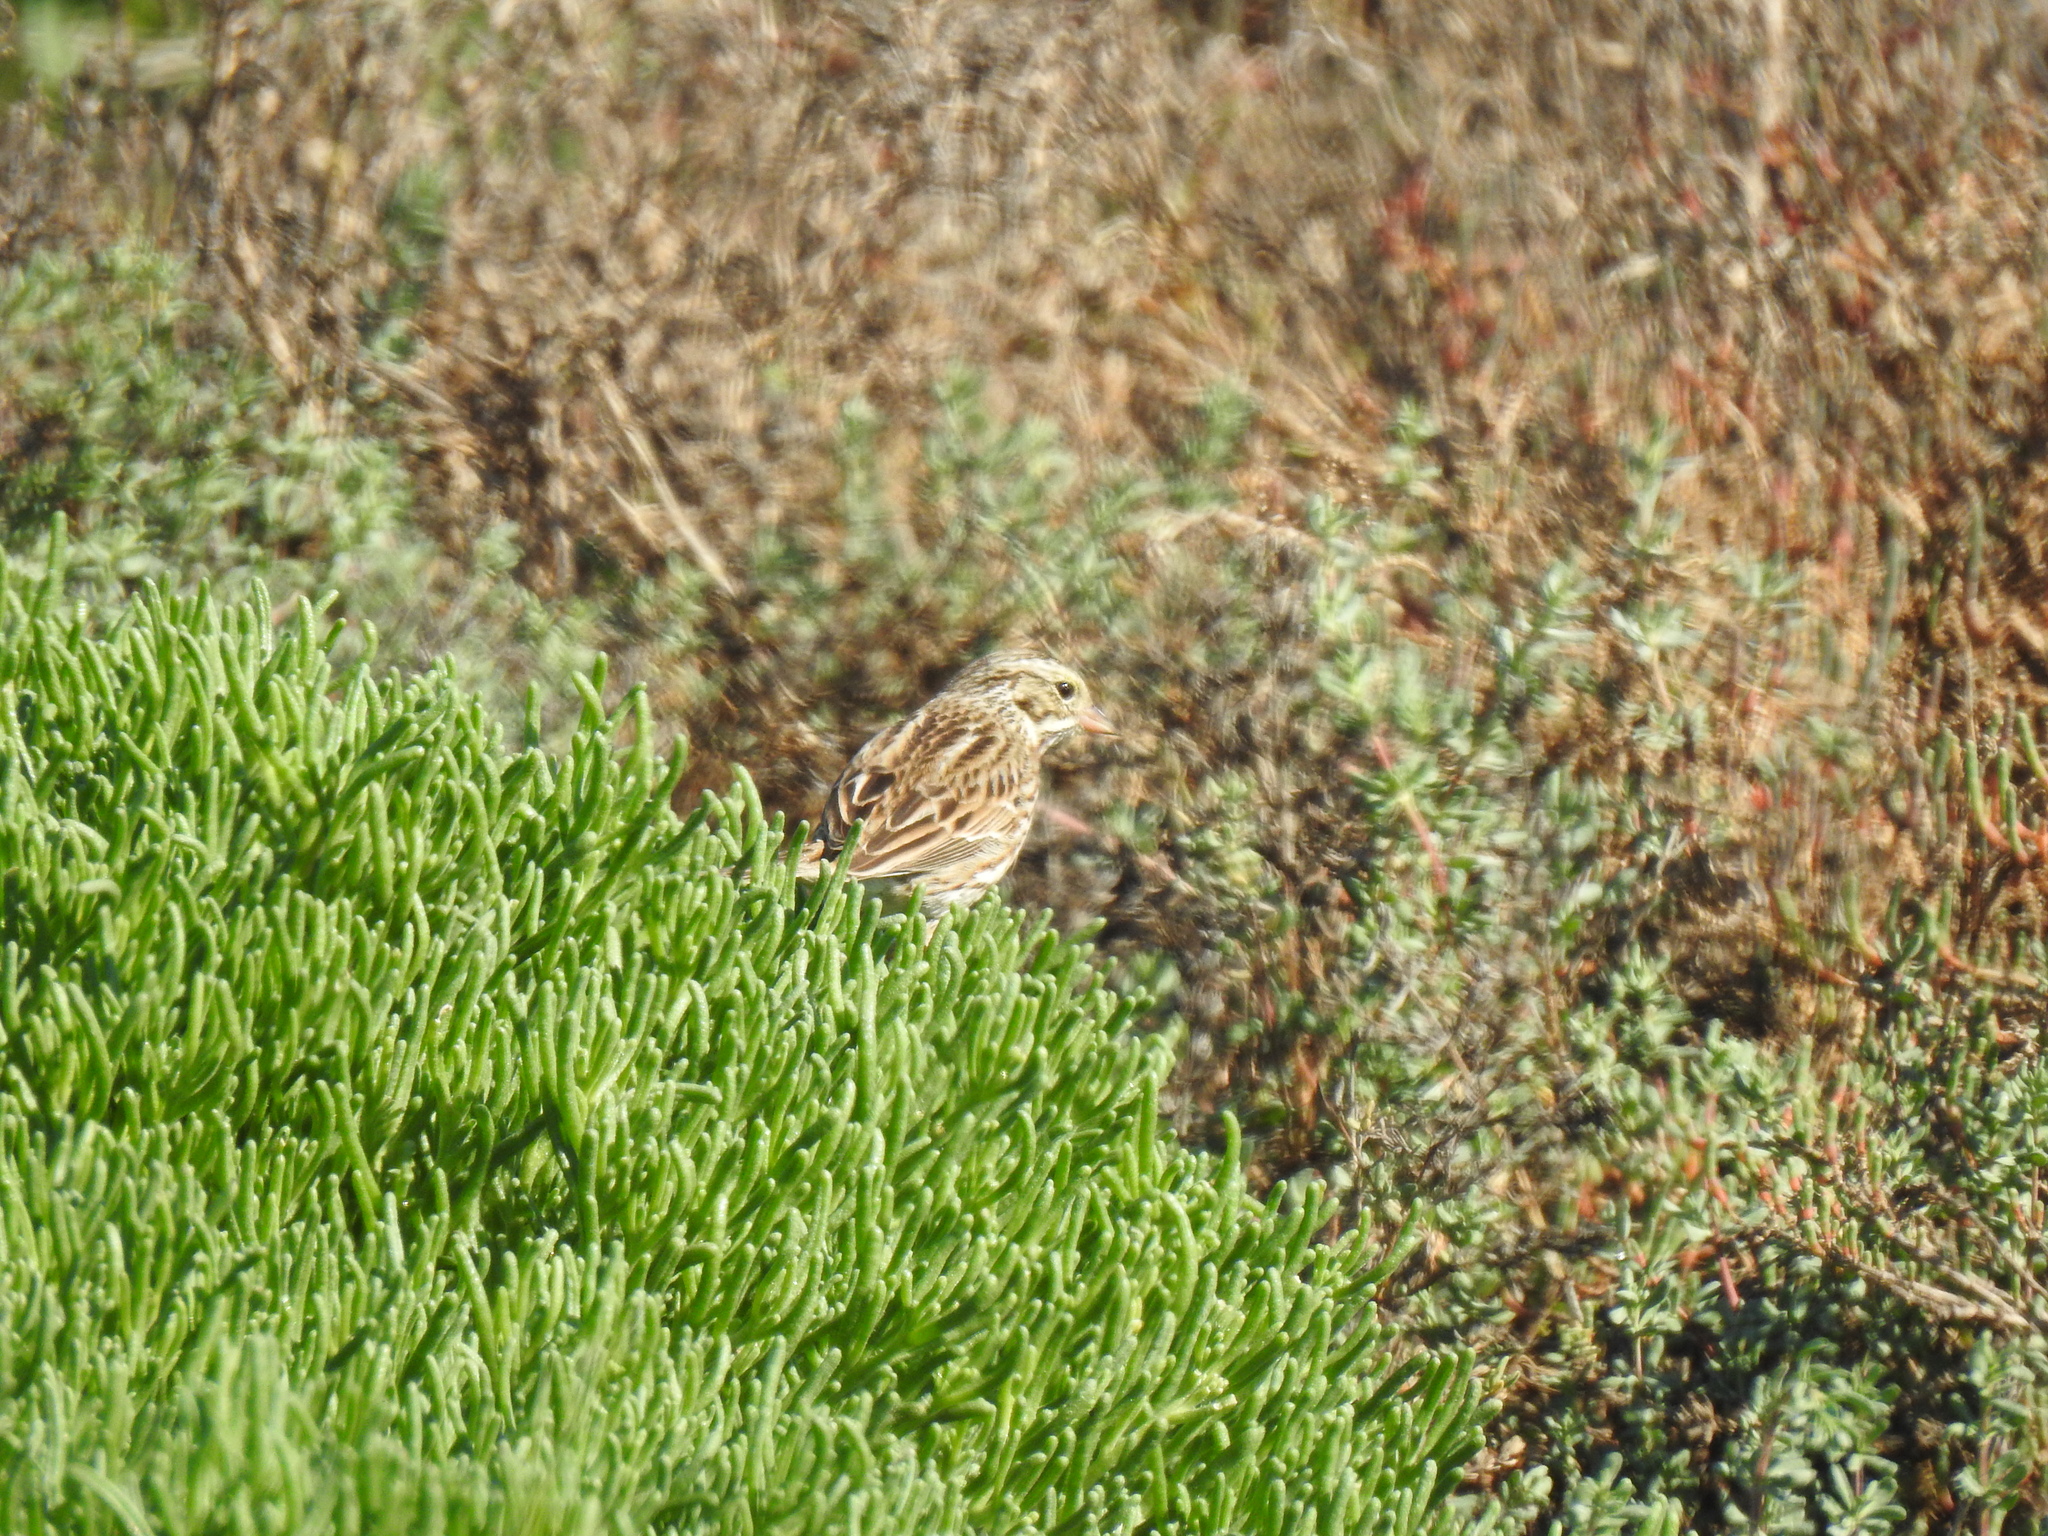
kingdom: Animalia
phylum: Chordata
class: Aves
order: Passeriformes
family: Passerellidae
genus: Passerculus
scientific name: Passerculus sandwichensis
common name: Savannah sparrow
